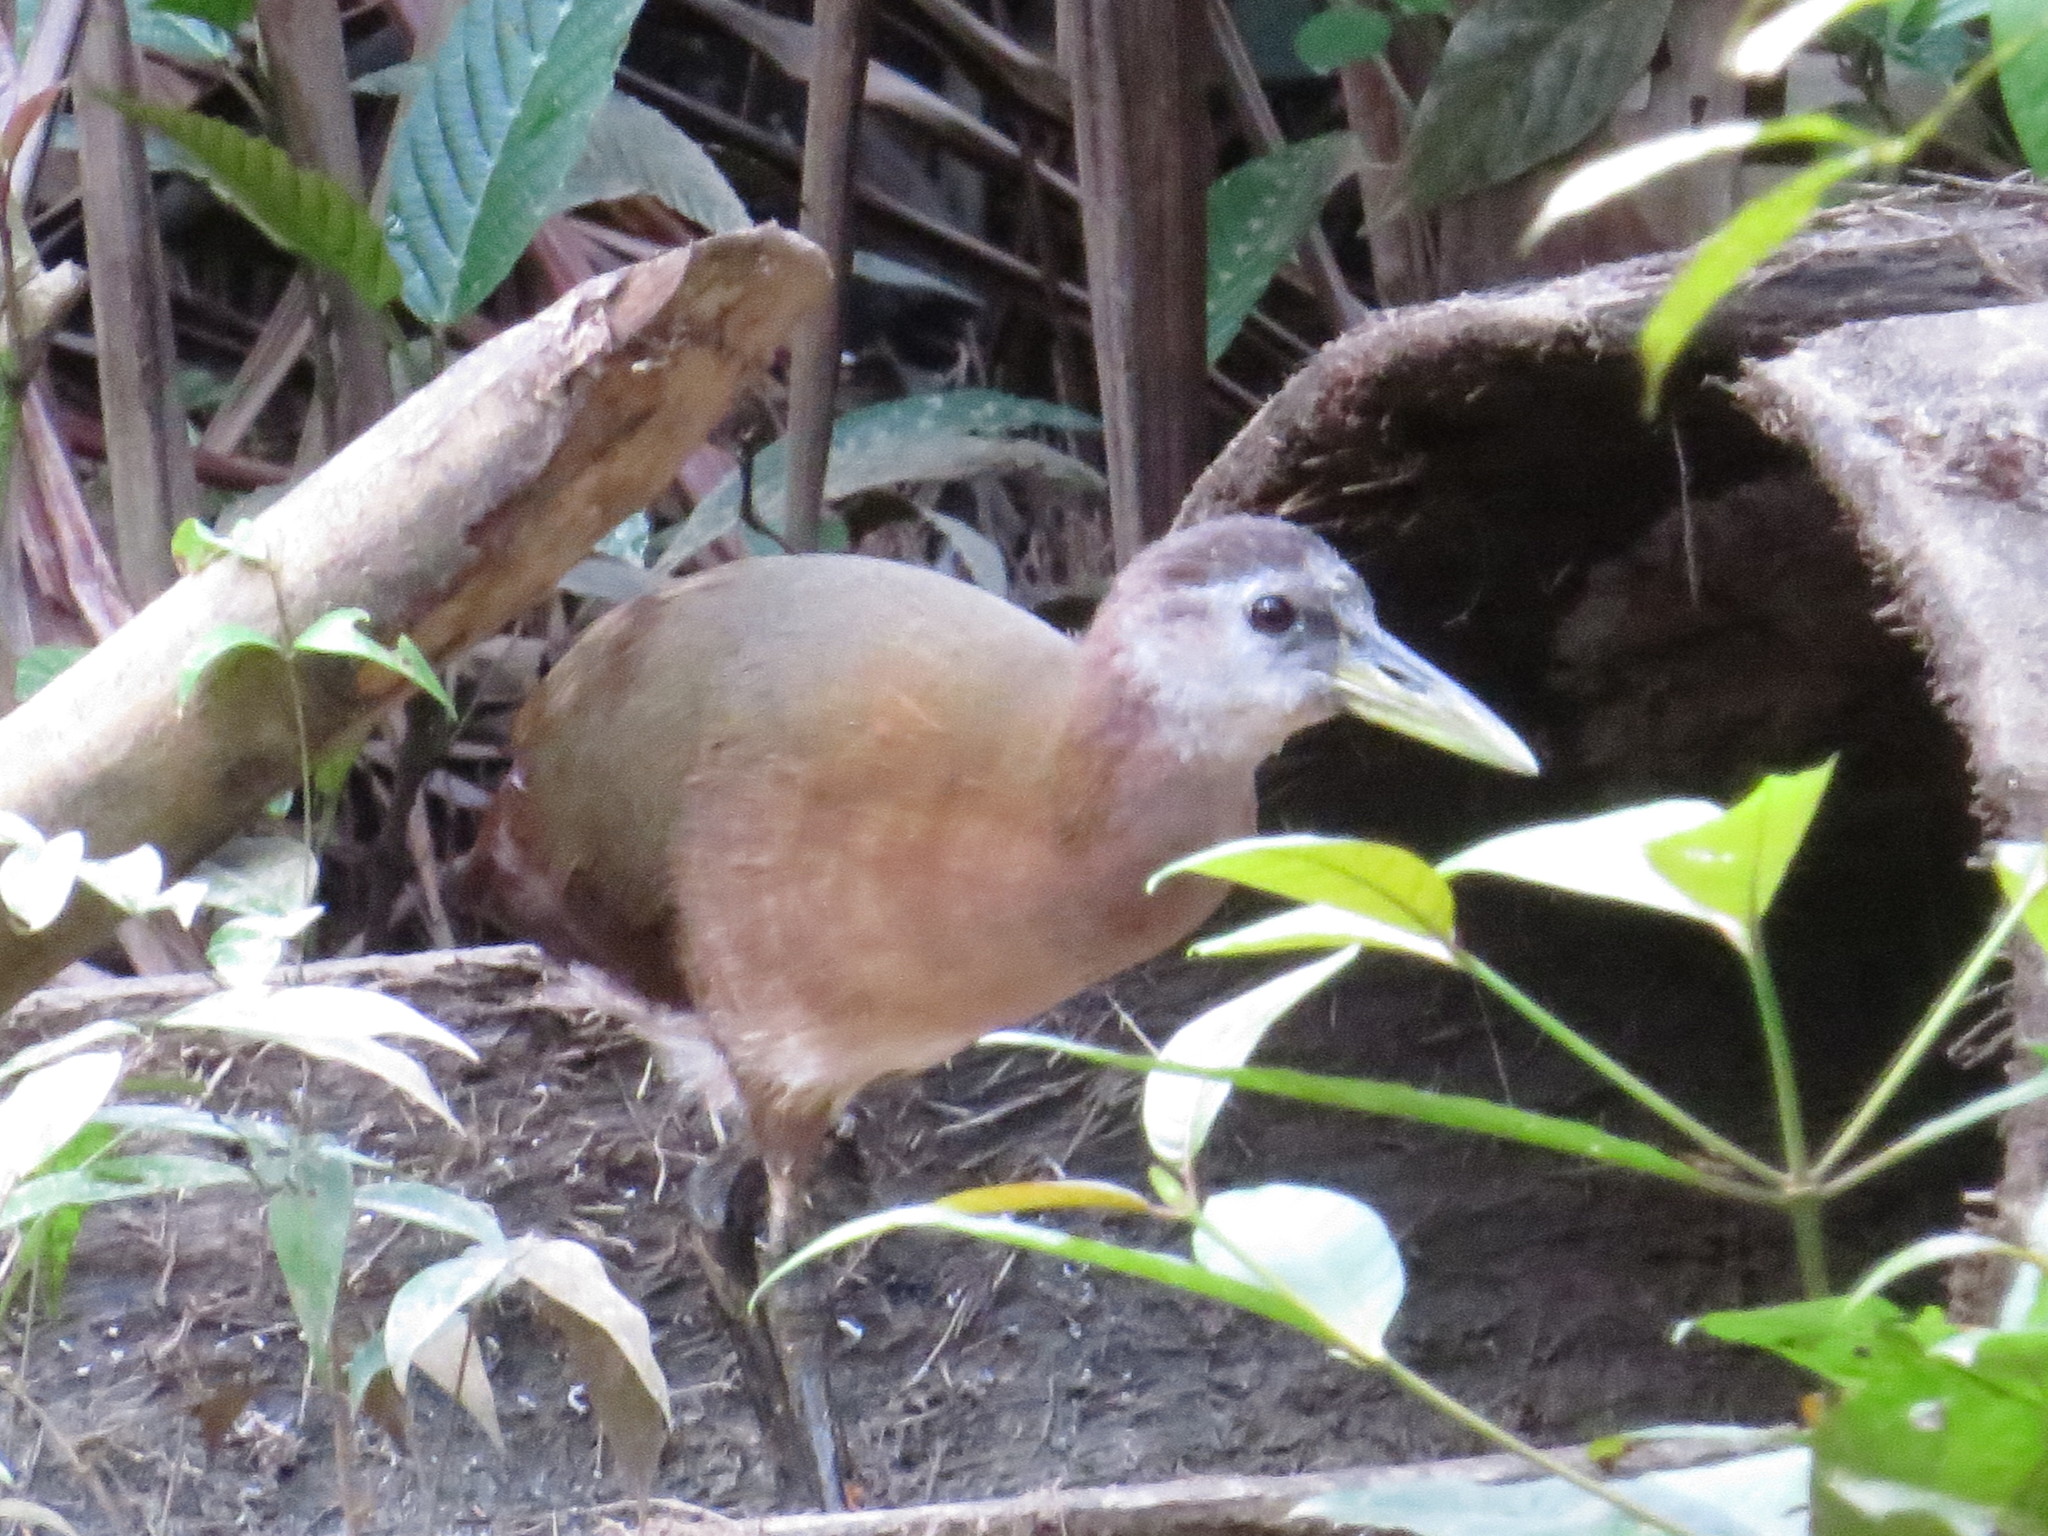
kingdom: Animalia
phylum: Chordata
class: Aves
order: Gruiformes
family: Rallidae
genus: Megacrex
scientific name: Megacrex inepta
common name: New guinea flightless rail
